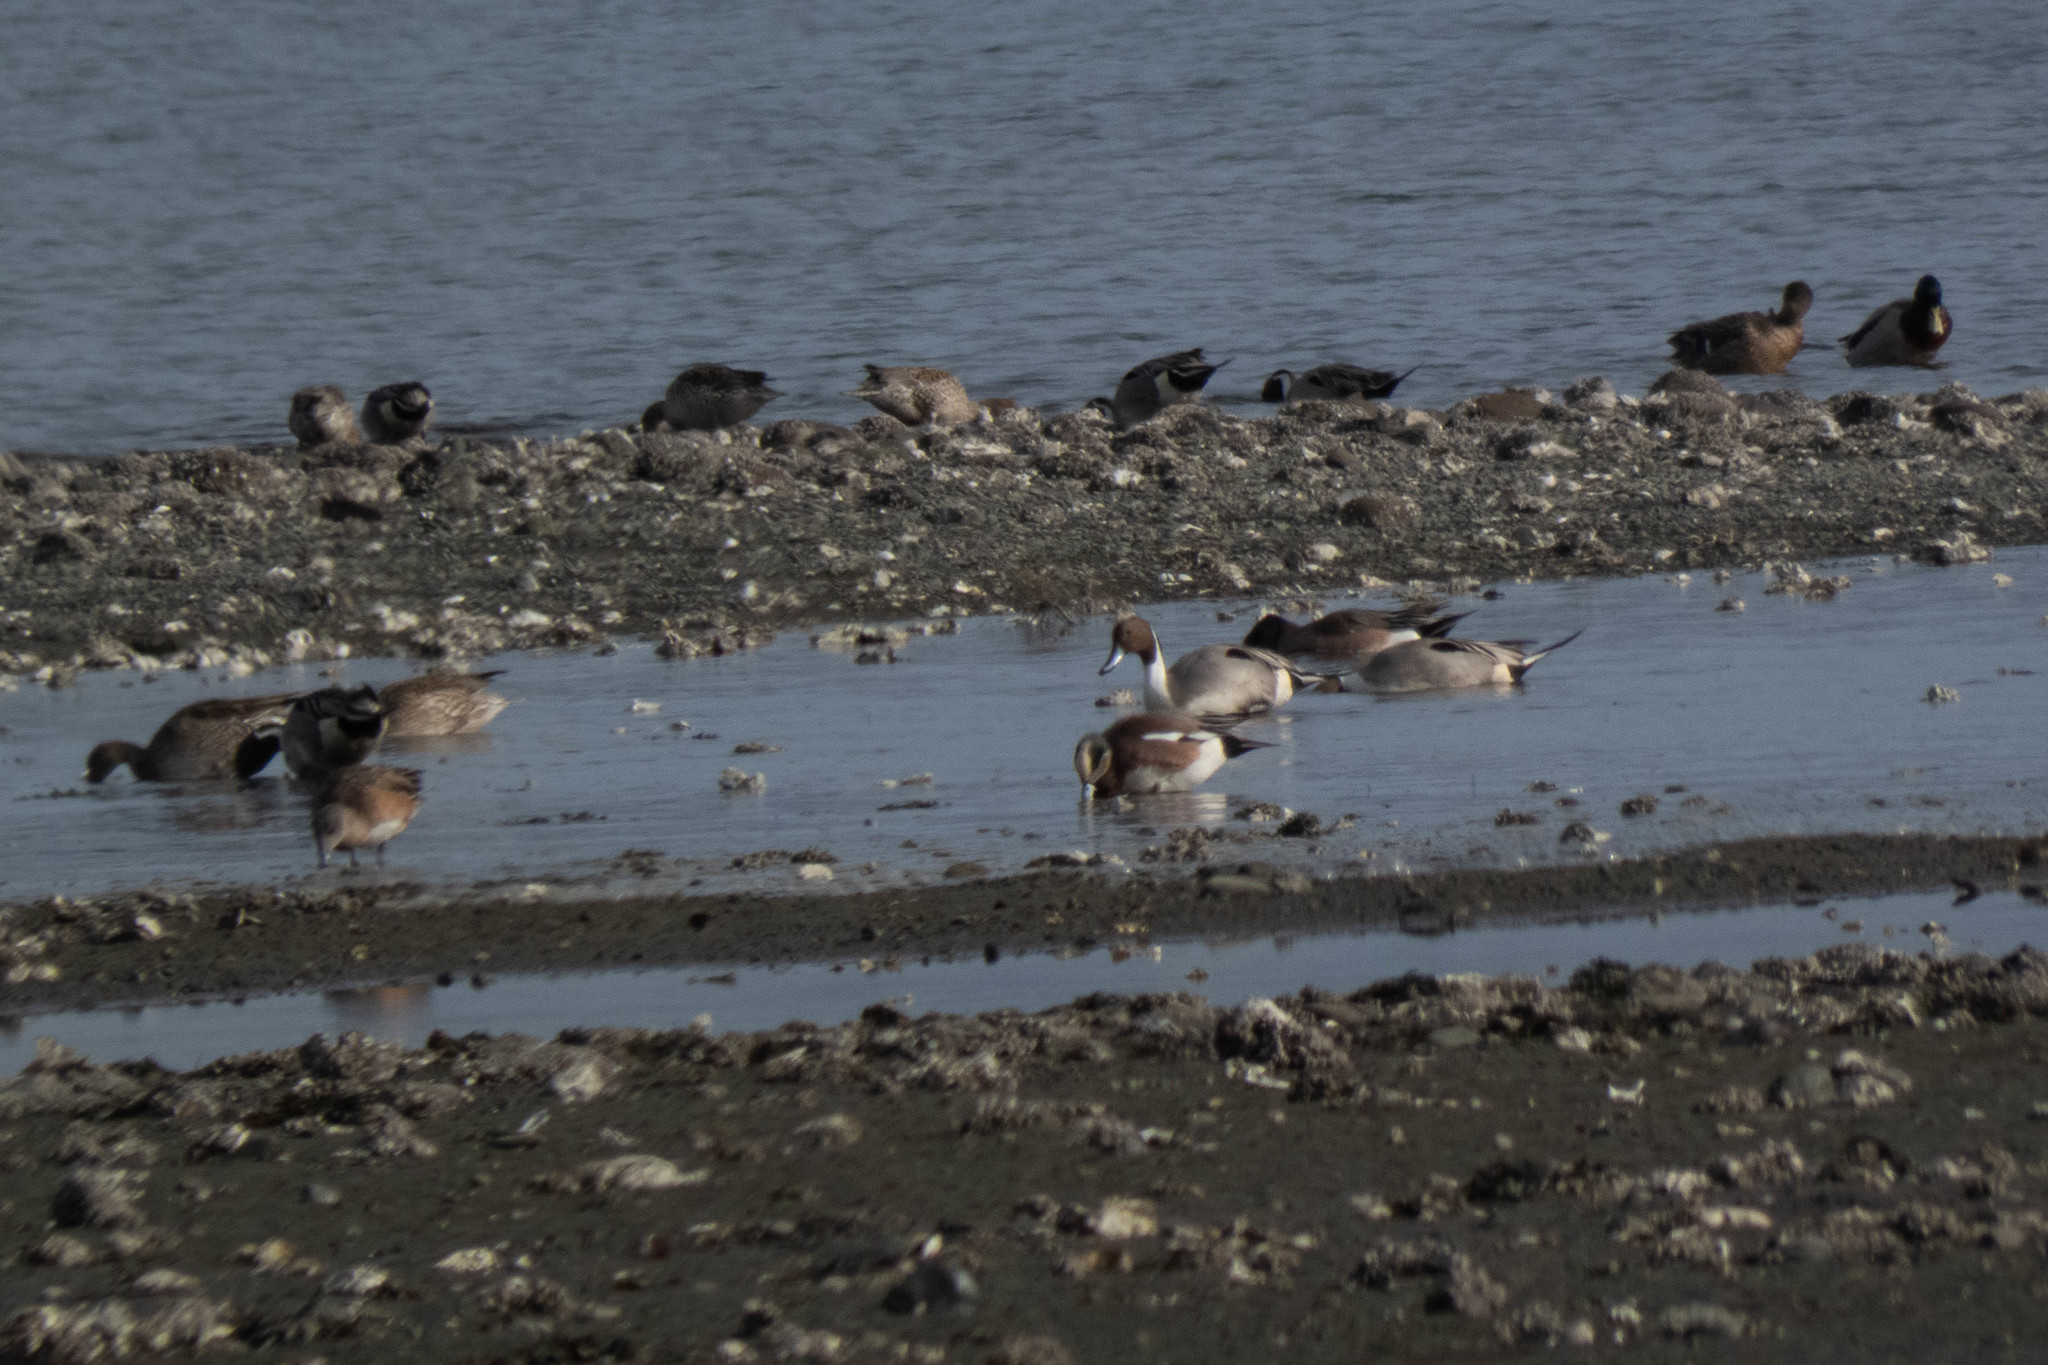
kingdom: Animalia
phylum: Chordata
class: Aves
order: Anseriformes
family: Anatidae
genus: Anas
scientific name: Anas acuta
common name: Northern pintail
